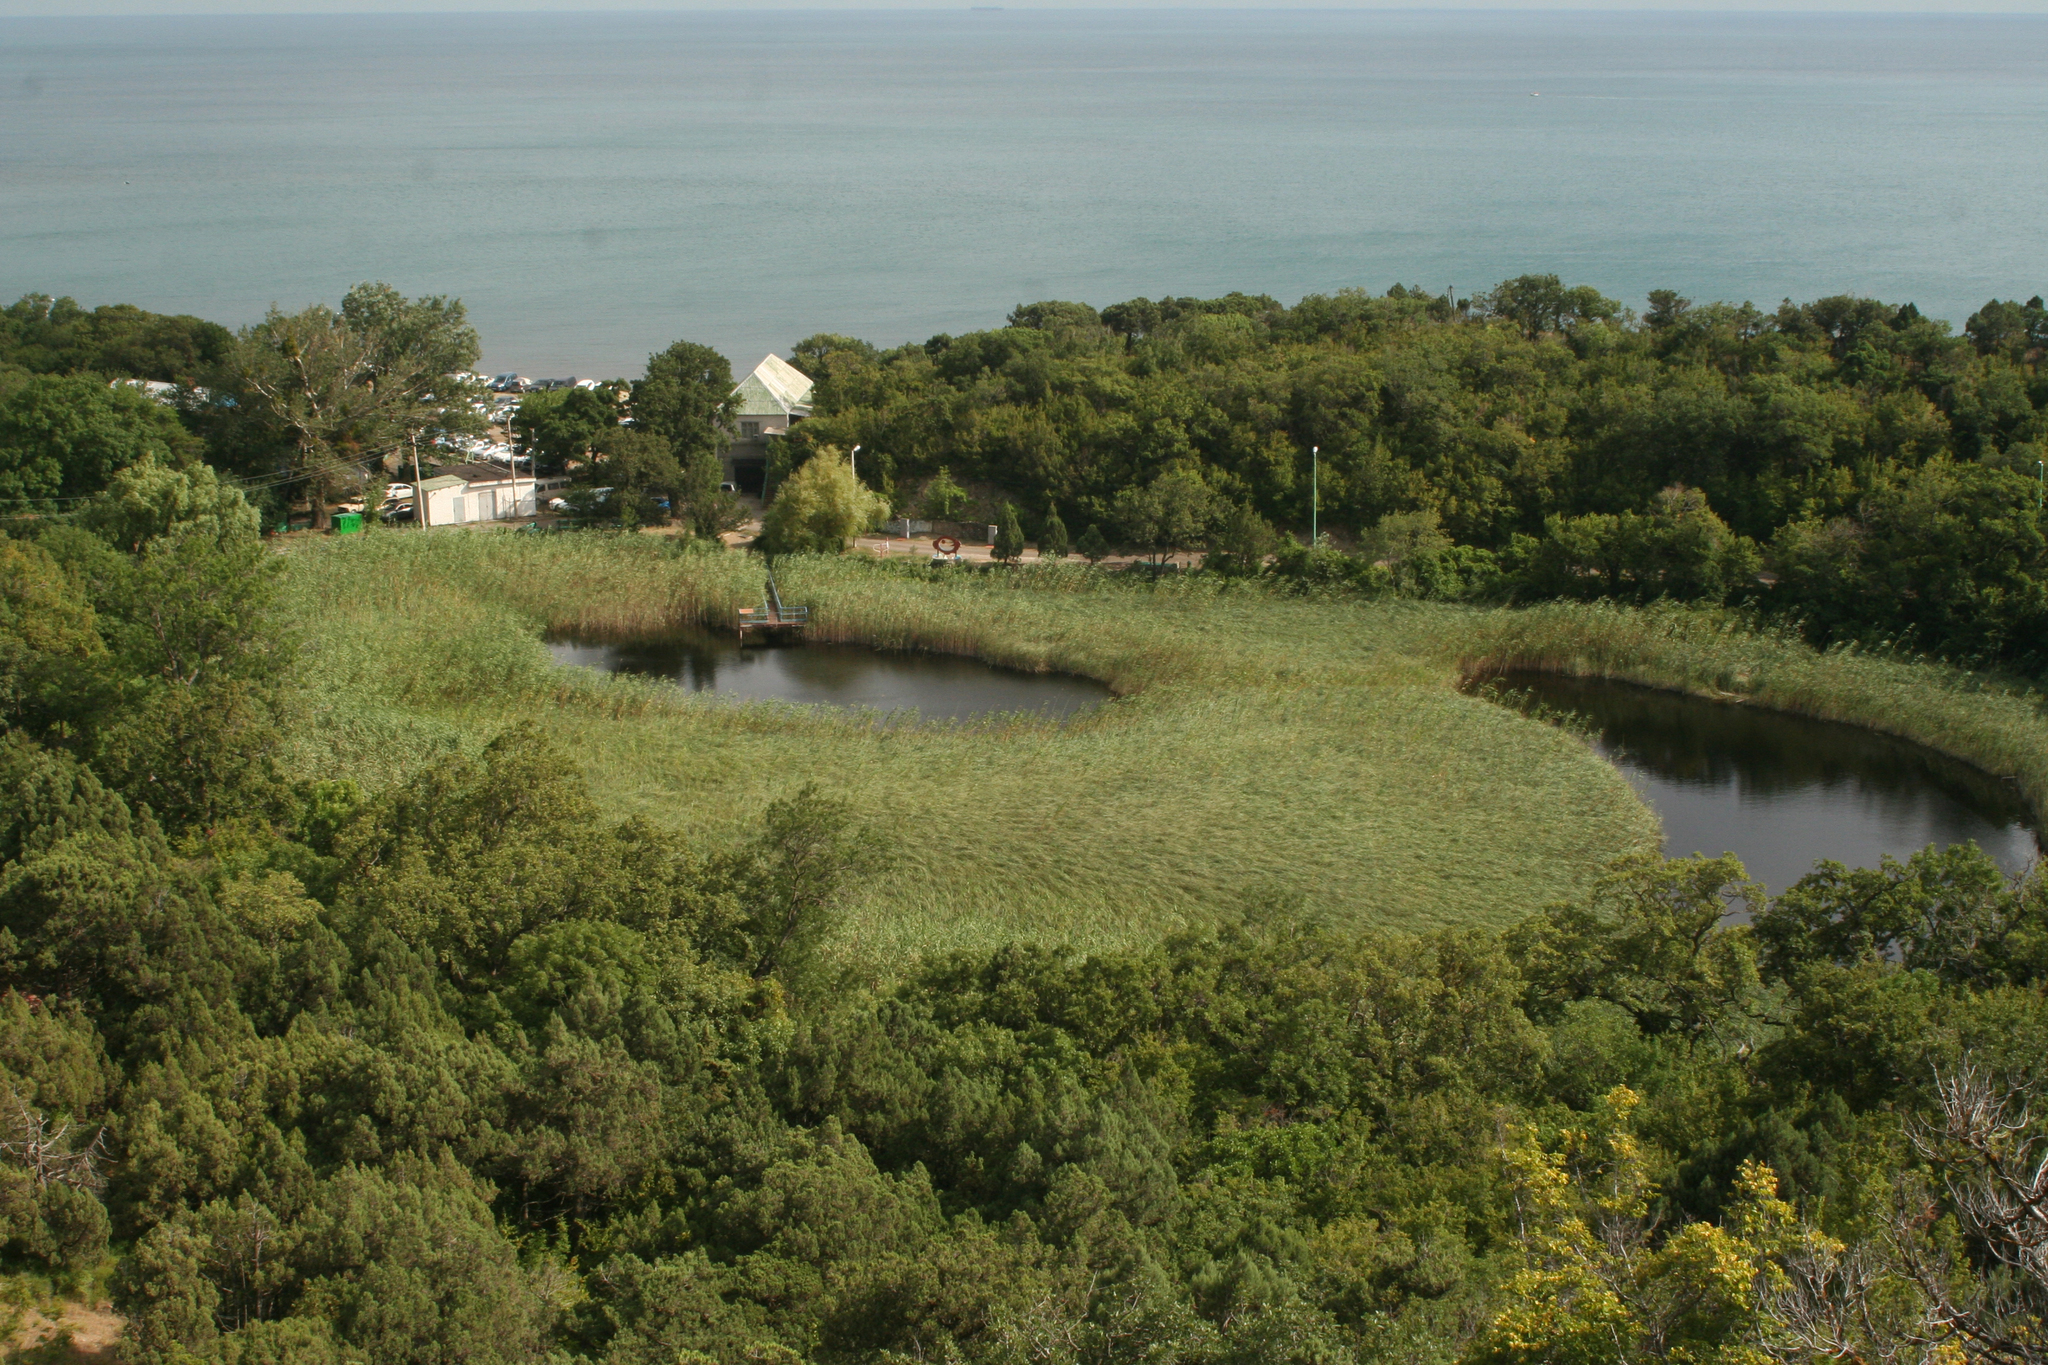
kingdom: Plantae
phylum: Tracheophyta
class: Liliopsida
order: Poales
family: Poaceae
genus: Phragmites
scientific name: Phragmites australis
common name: Common reed
